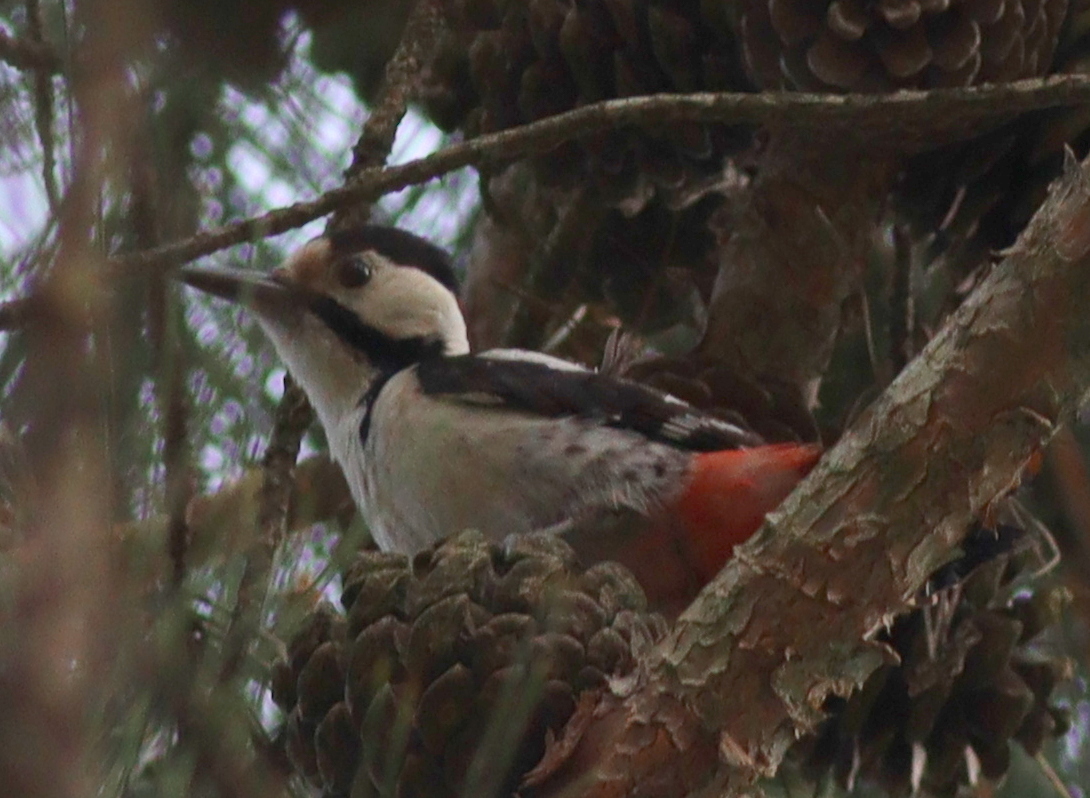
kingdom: Animalia
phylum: Chordata
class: Aves
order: Piciformes
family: Picidae
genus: Dendrocopos
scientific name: Dendrocopos syriacus
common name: Syrian woodpecker
